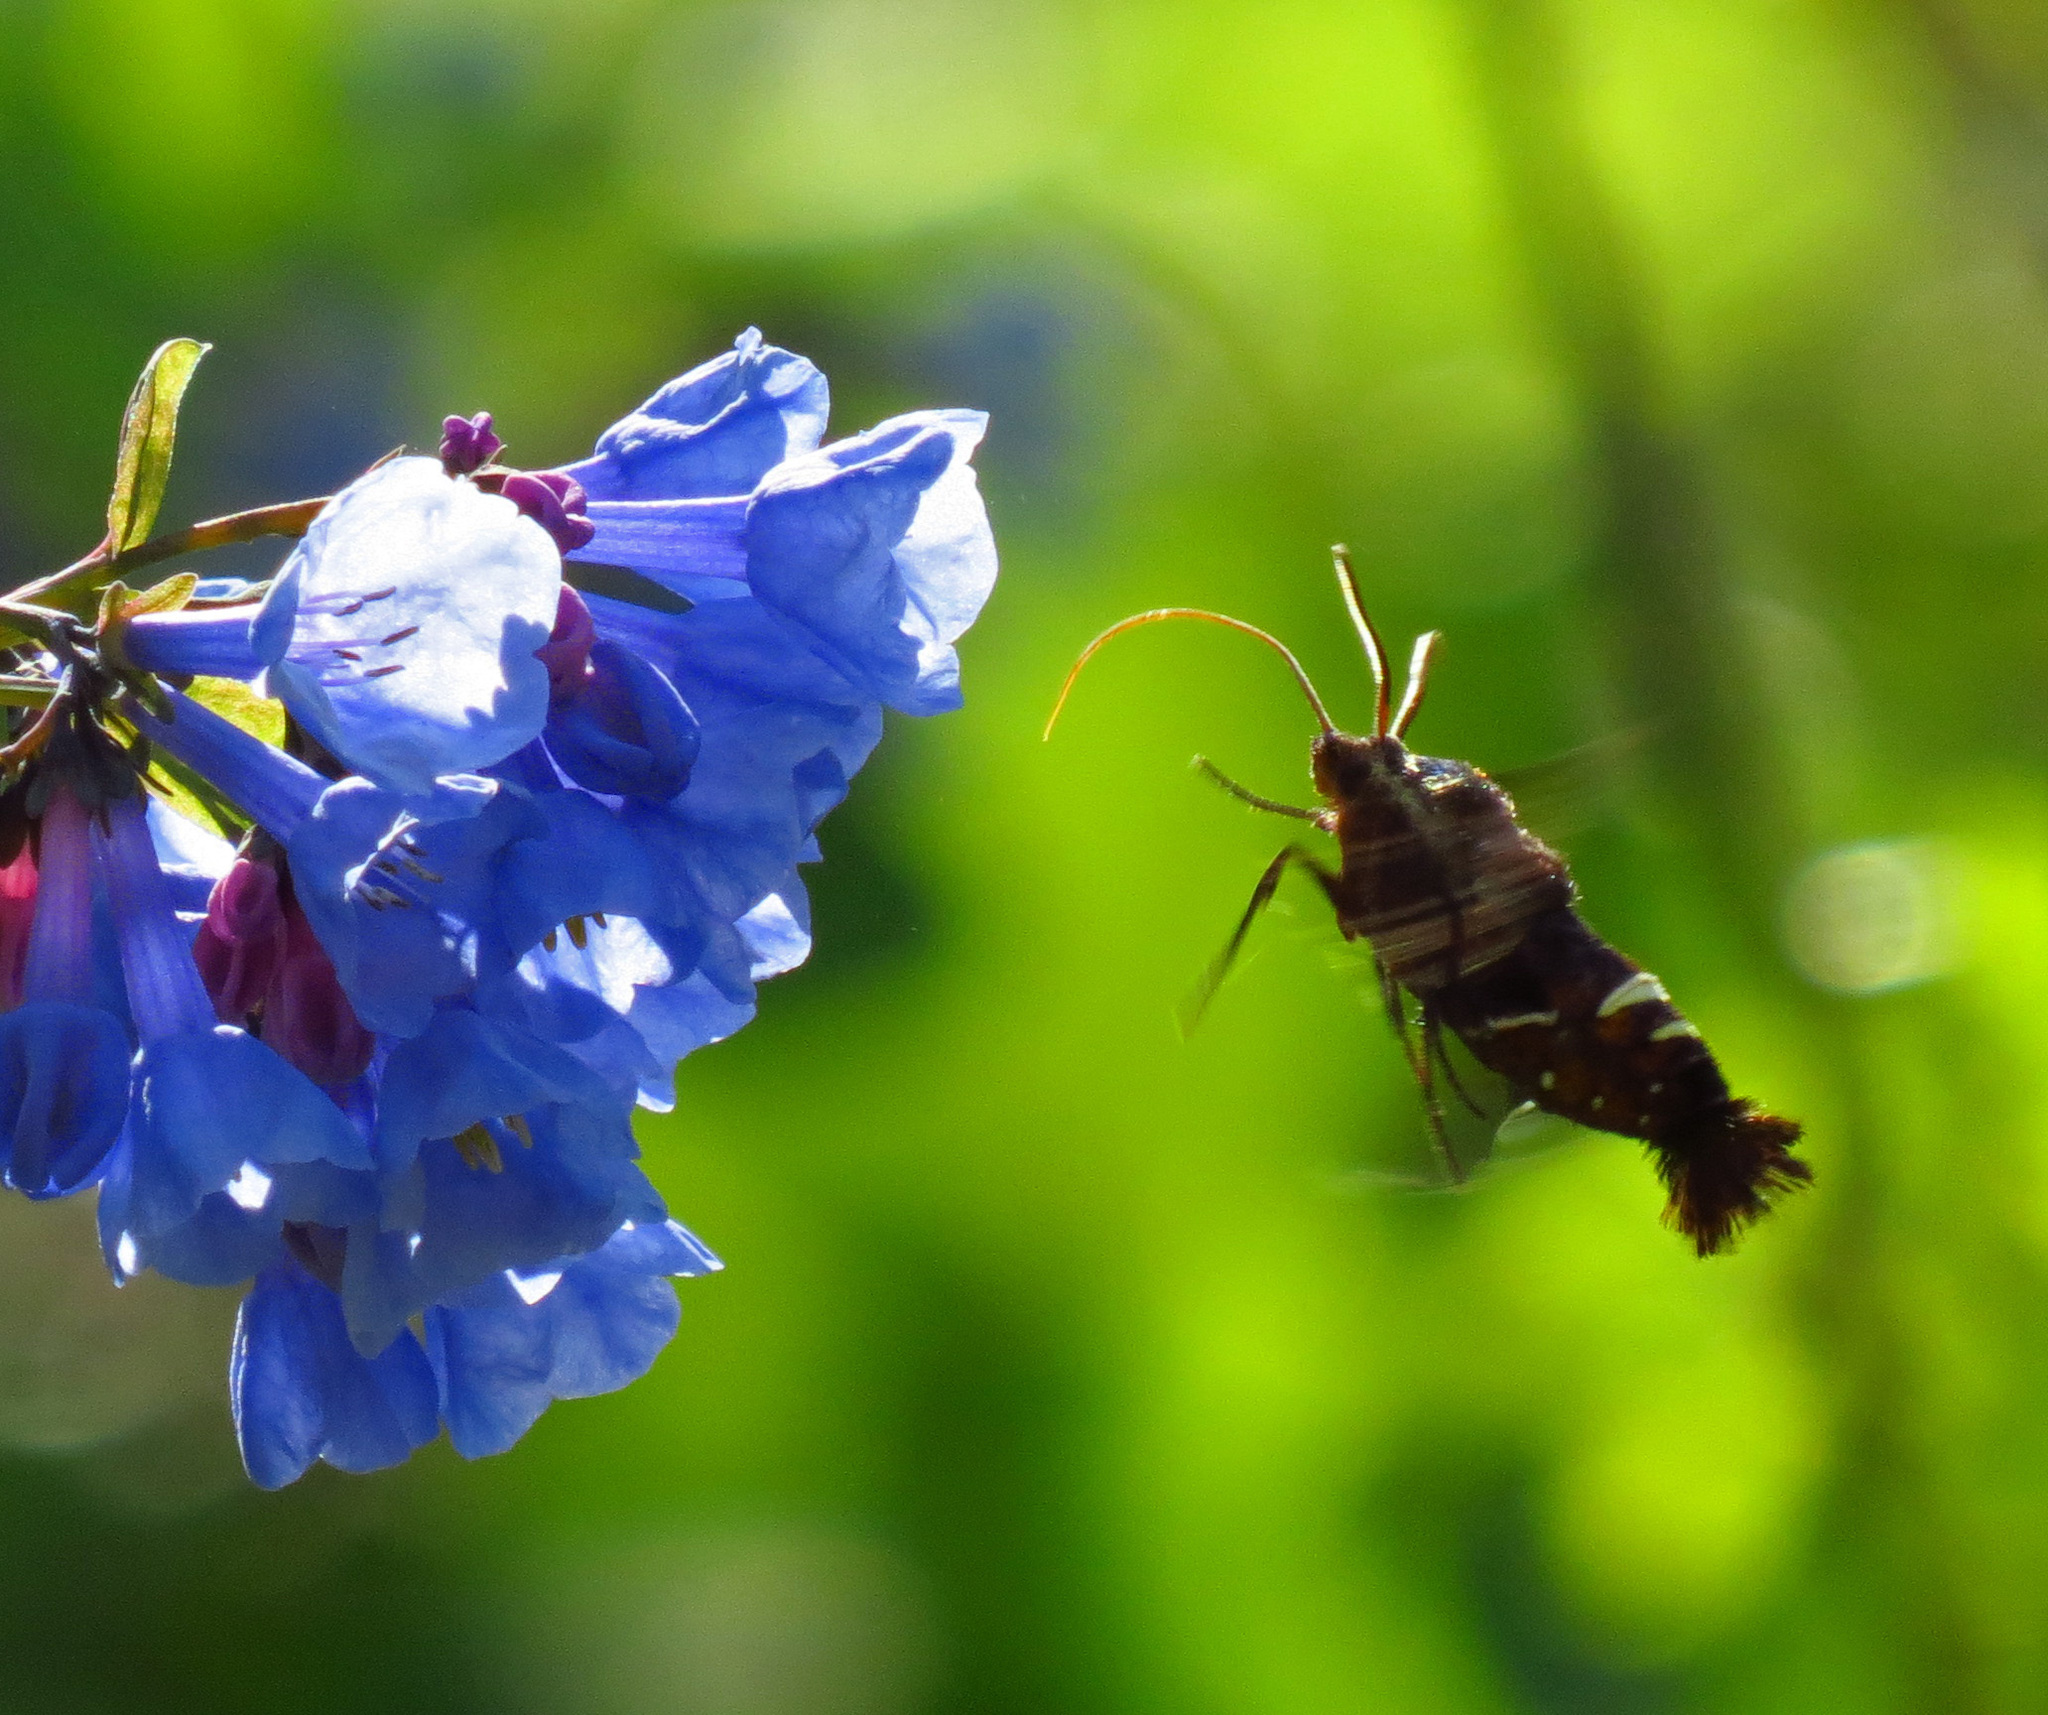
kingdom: Animalia
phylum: Arthropoda
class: Insecta
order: Lepidoptera
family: Sphingidae
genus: Amphion
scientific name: Amphion floridensis
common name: Nessus sphinx
